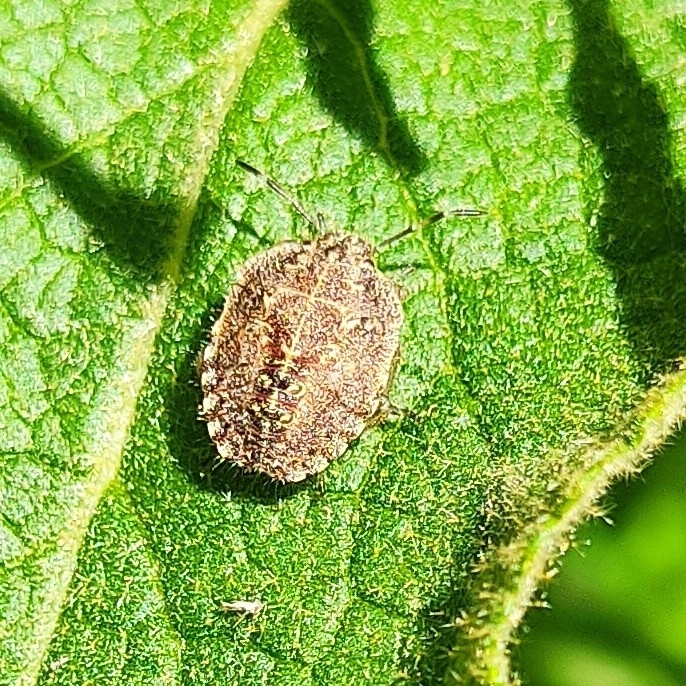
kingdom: Animalia
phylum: Arthropoda
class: Insecta
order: Hemiptera
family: Pentatomidae
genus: Dolycoris
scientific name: Dolycoris baccarum
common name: Sloe bug
